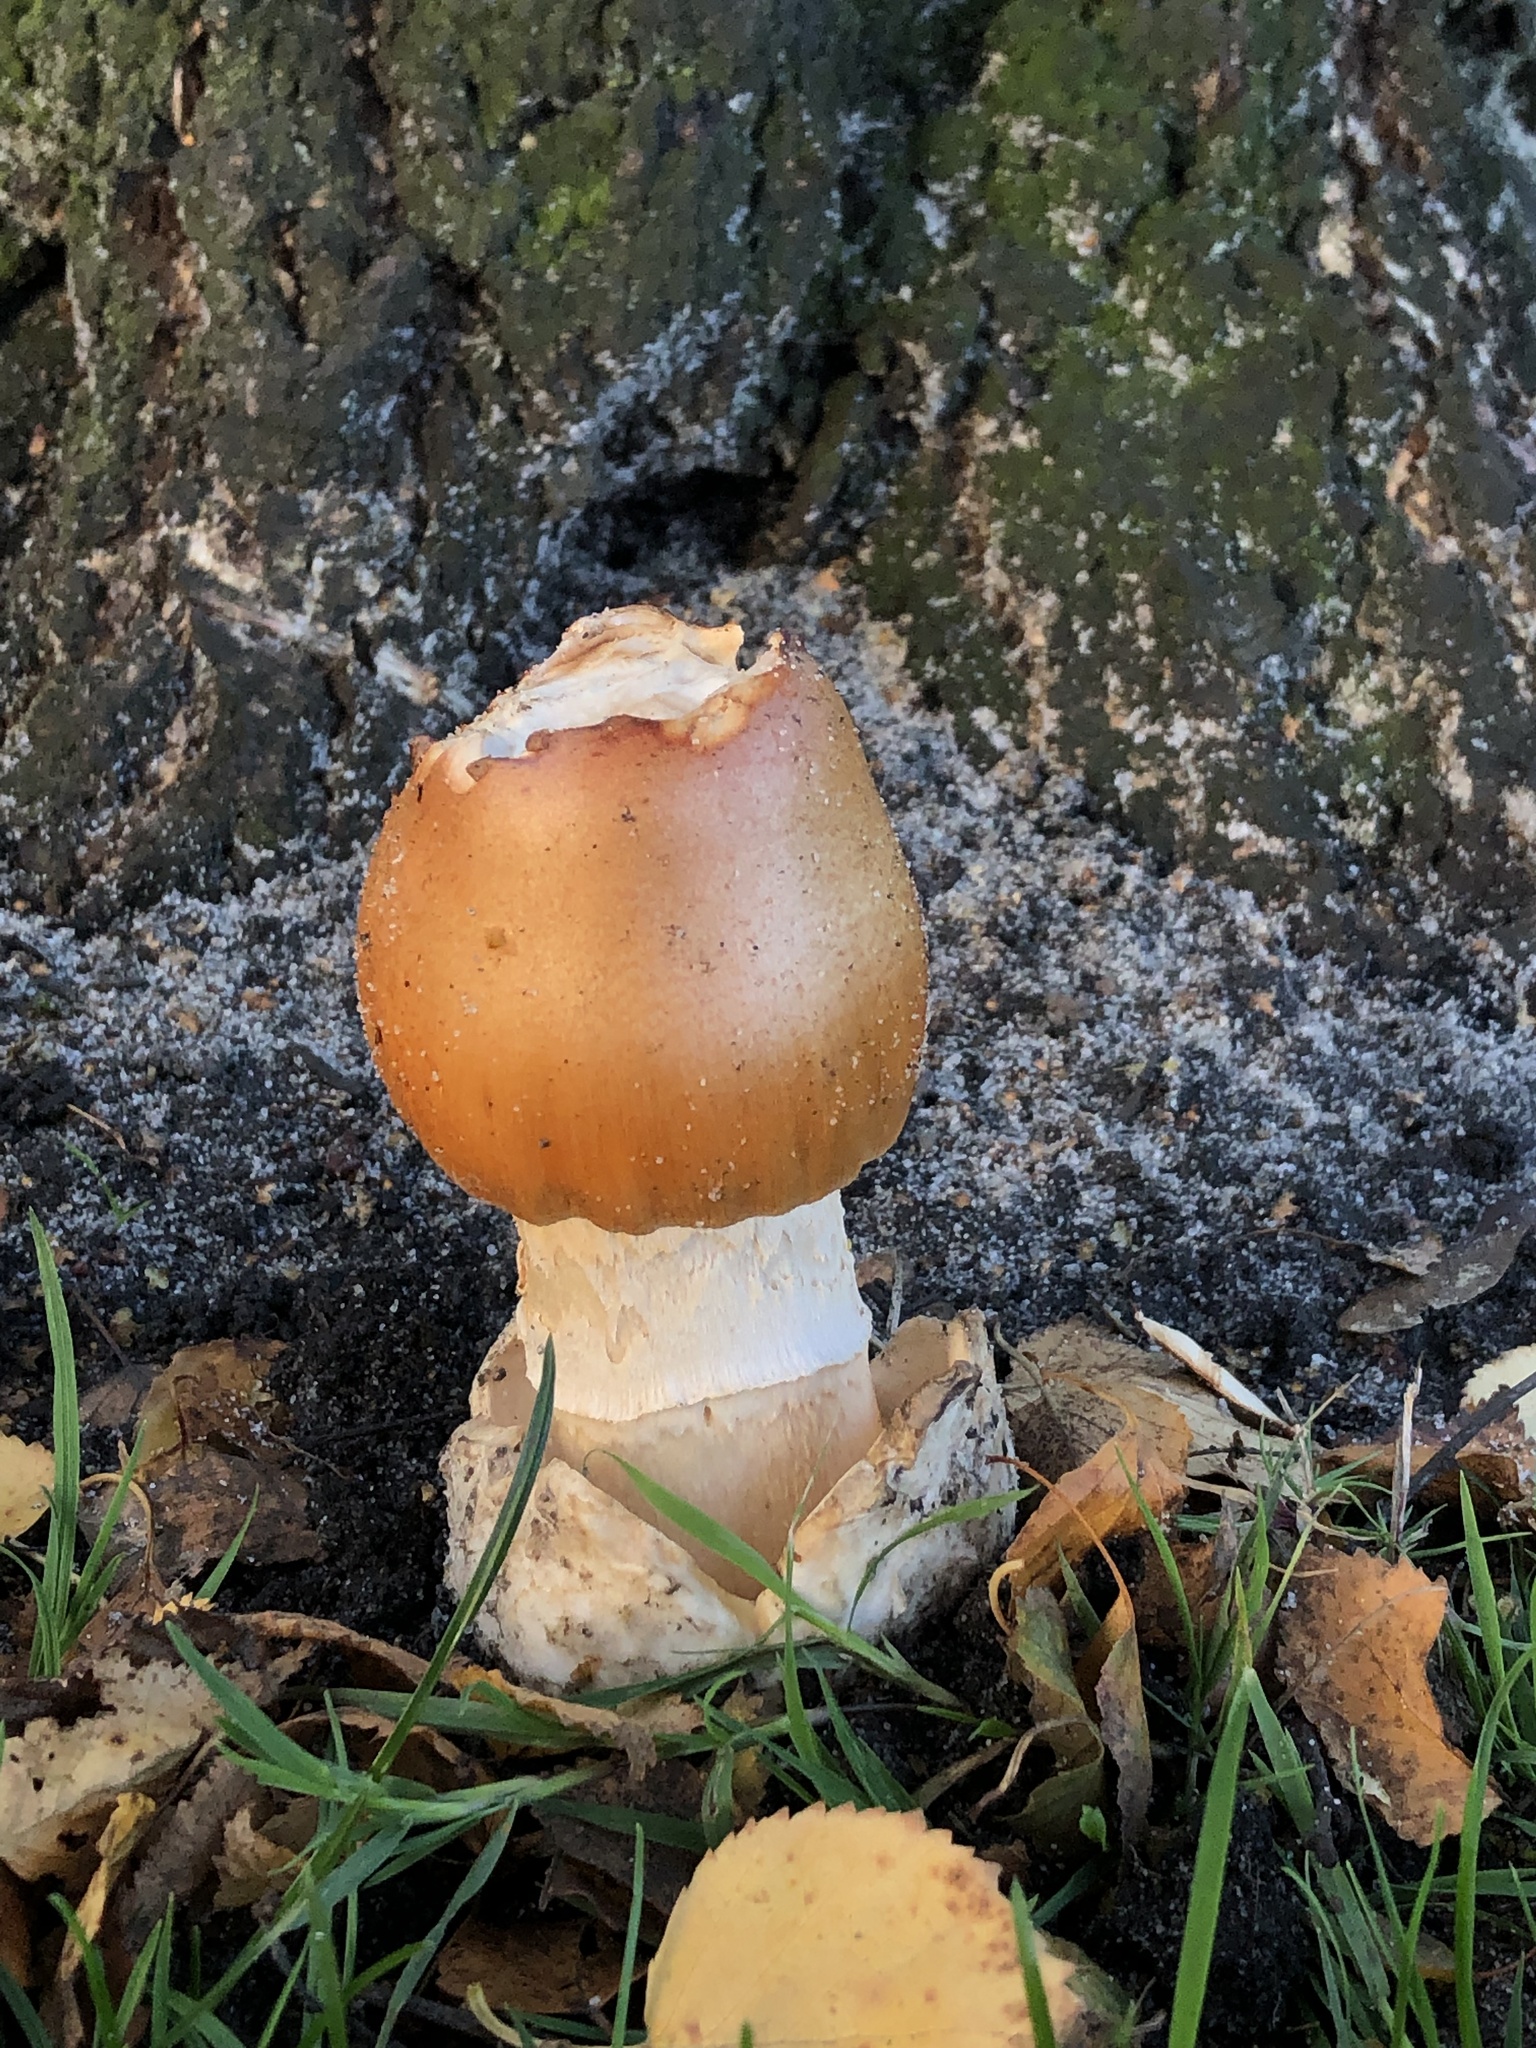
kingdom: Fungi
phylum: Basidiomycota
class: Agaricomycetes
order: Agaricales
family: Amanitaceae
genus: Amanita
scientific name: Amanita crocea
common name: Orange grisette
